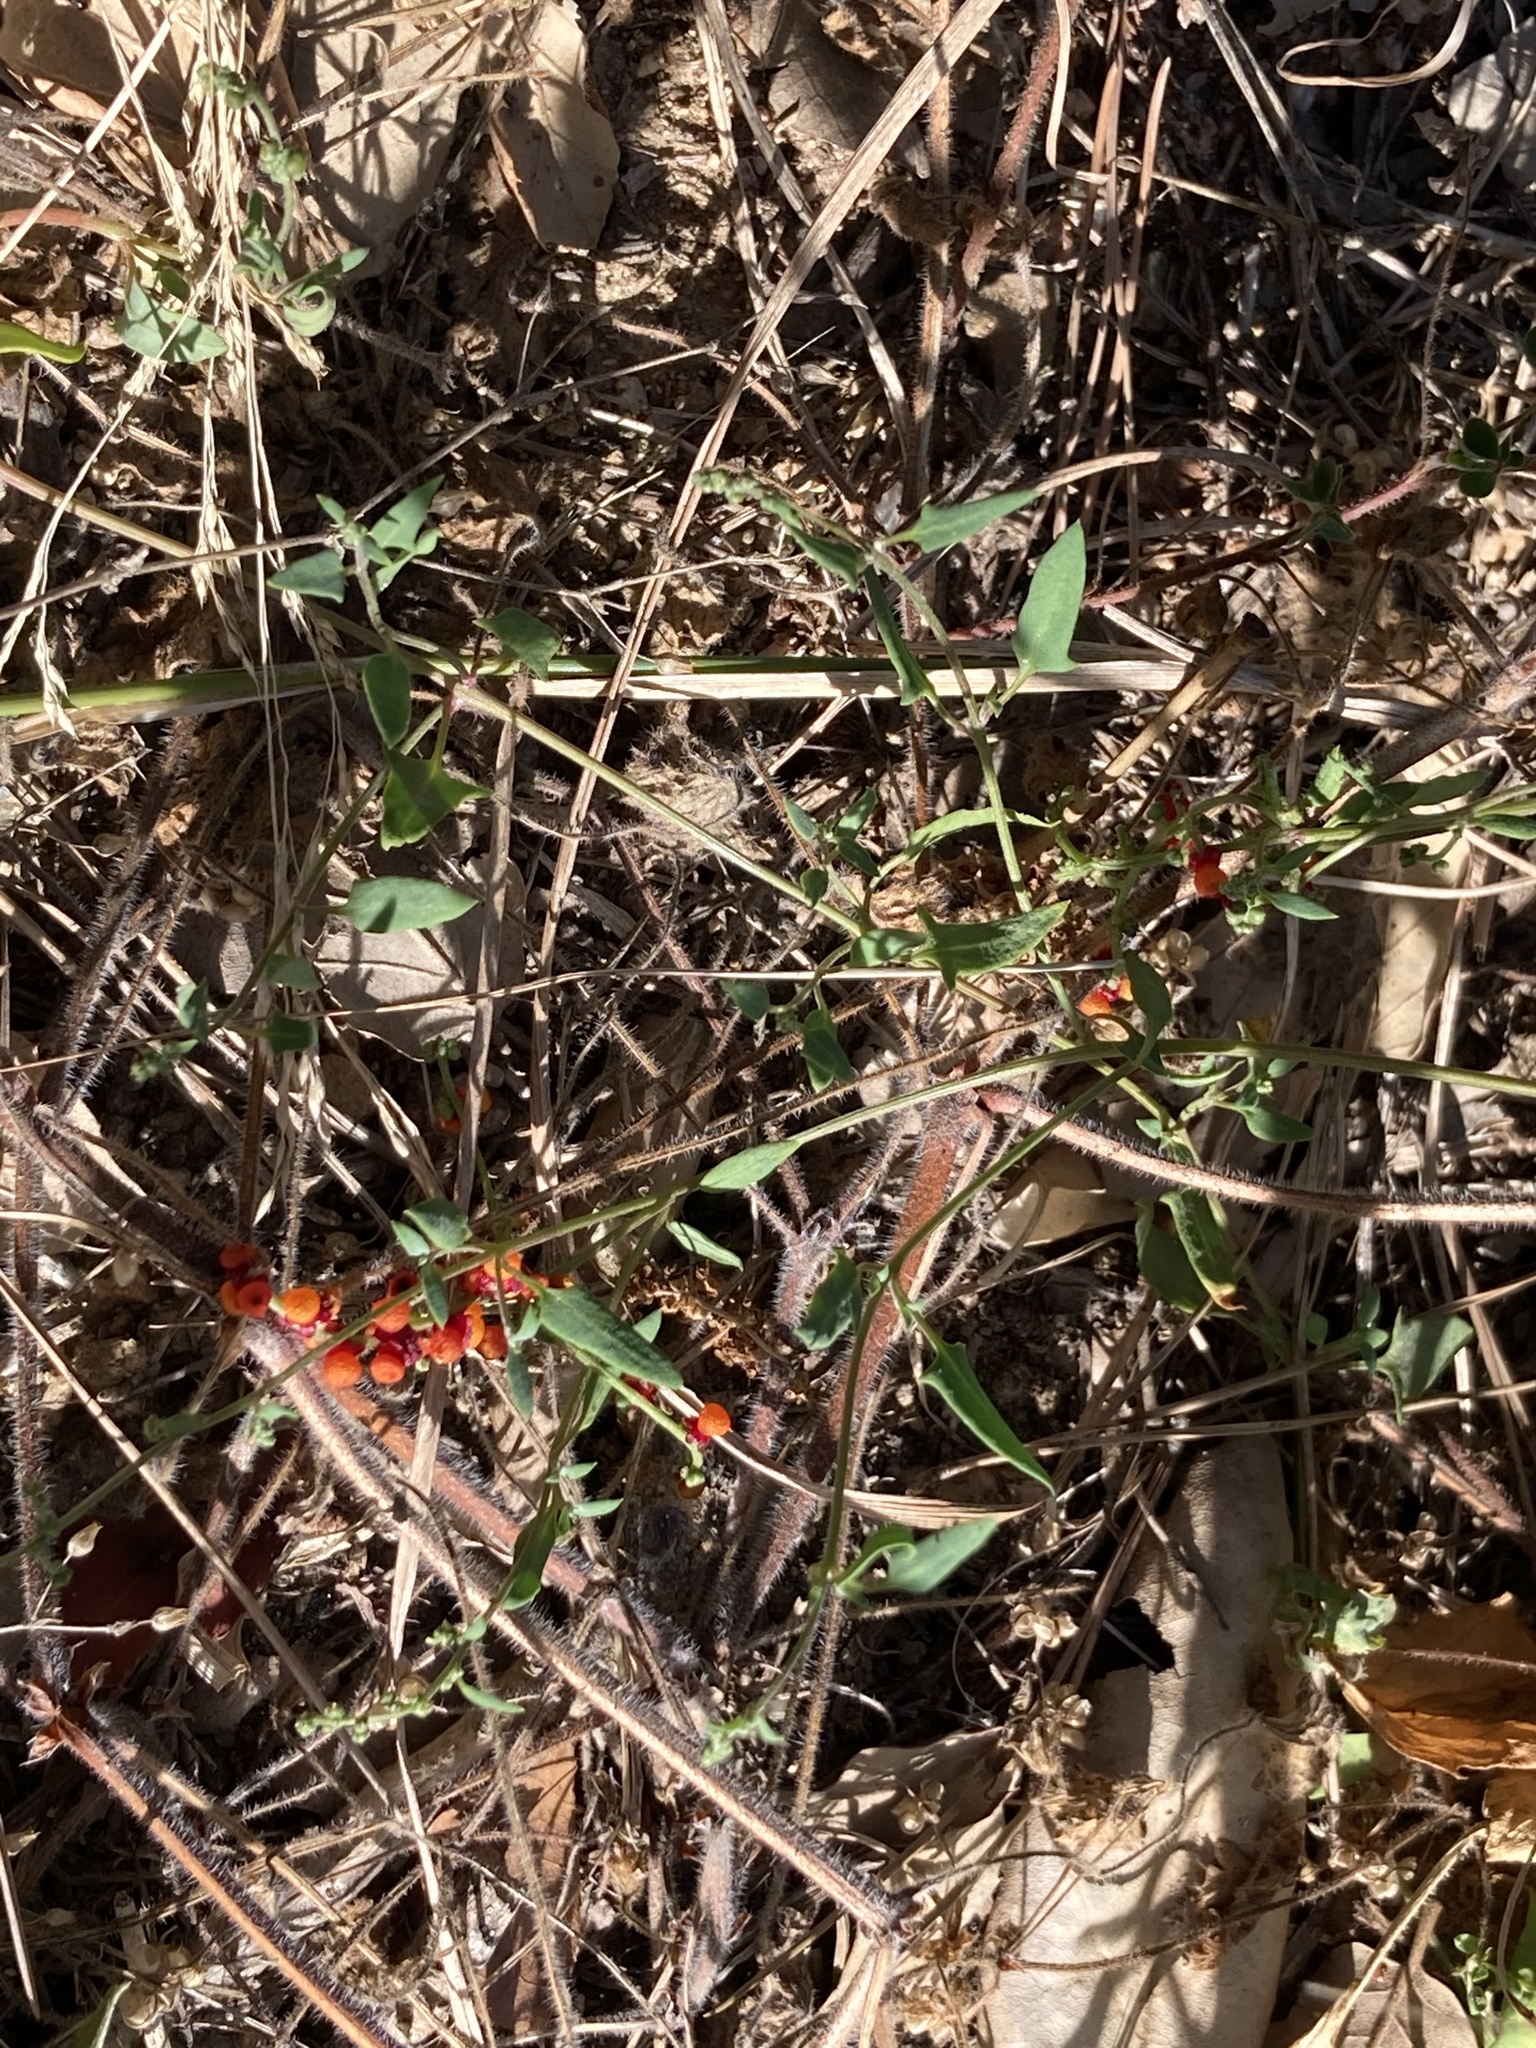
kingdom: Plantae
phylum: Tracheophyta
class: Magnoliopsida
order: Caryophyllales
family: Amaranthaceae
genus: Chenopodium
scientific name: Chenopodium nutans
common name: Climbing-saltbush
